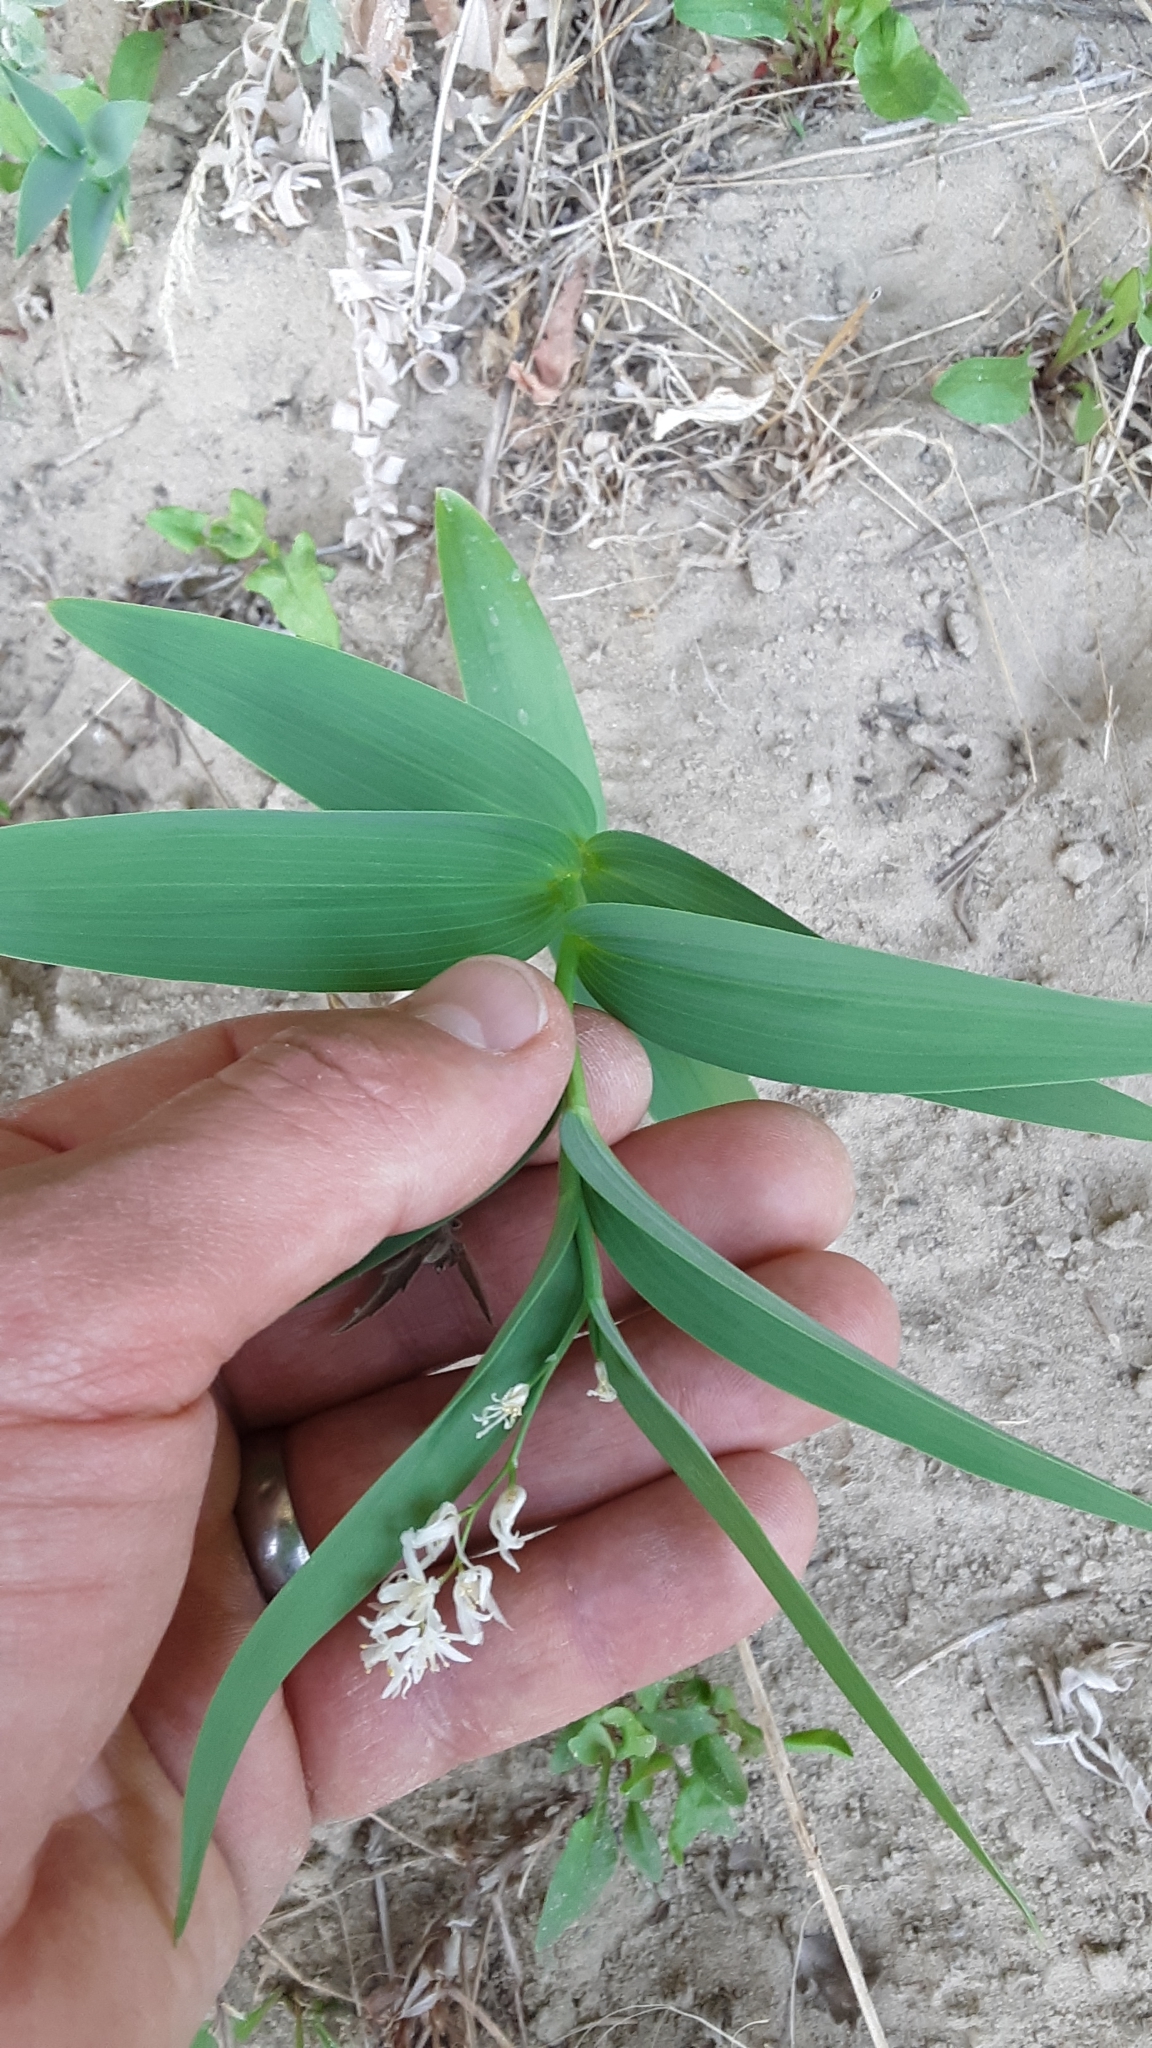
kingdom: Plantae
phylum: Tracheophyta
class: Liliopsida
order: Asparagales
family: Asparagaceae
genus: Maianthemum
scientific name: Maianthemum stellatum
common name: Little false solomon's seal
